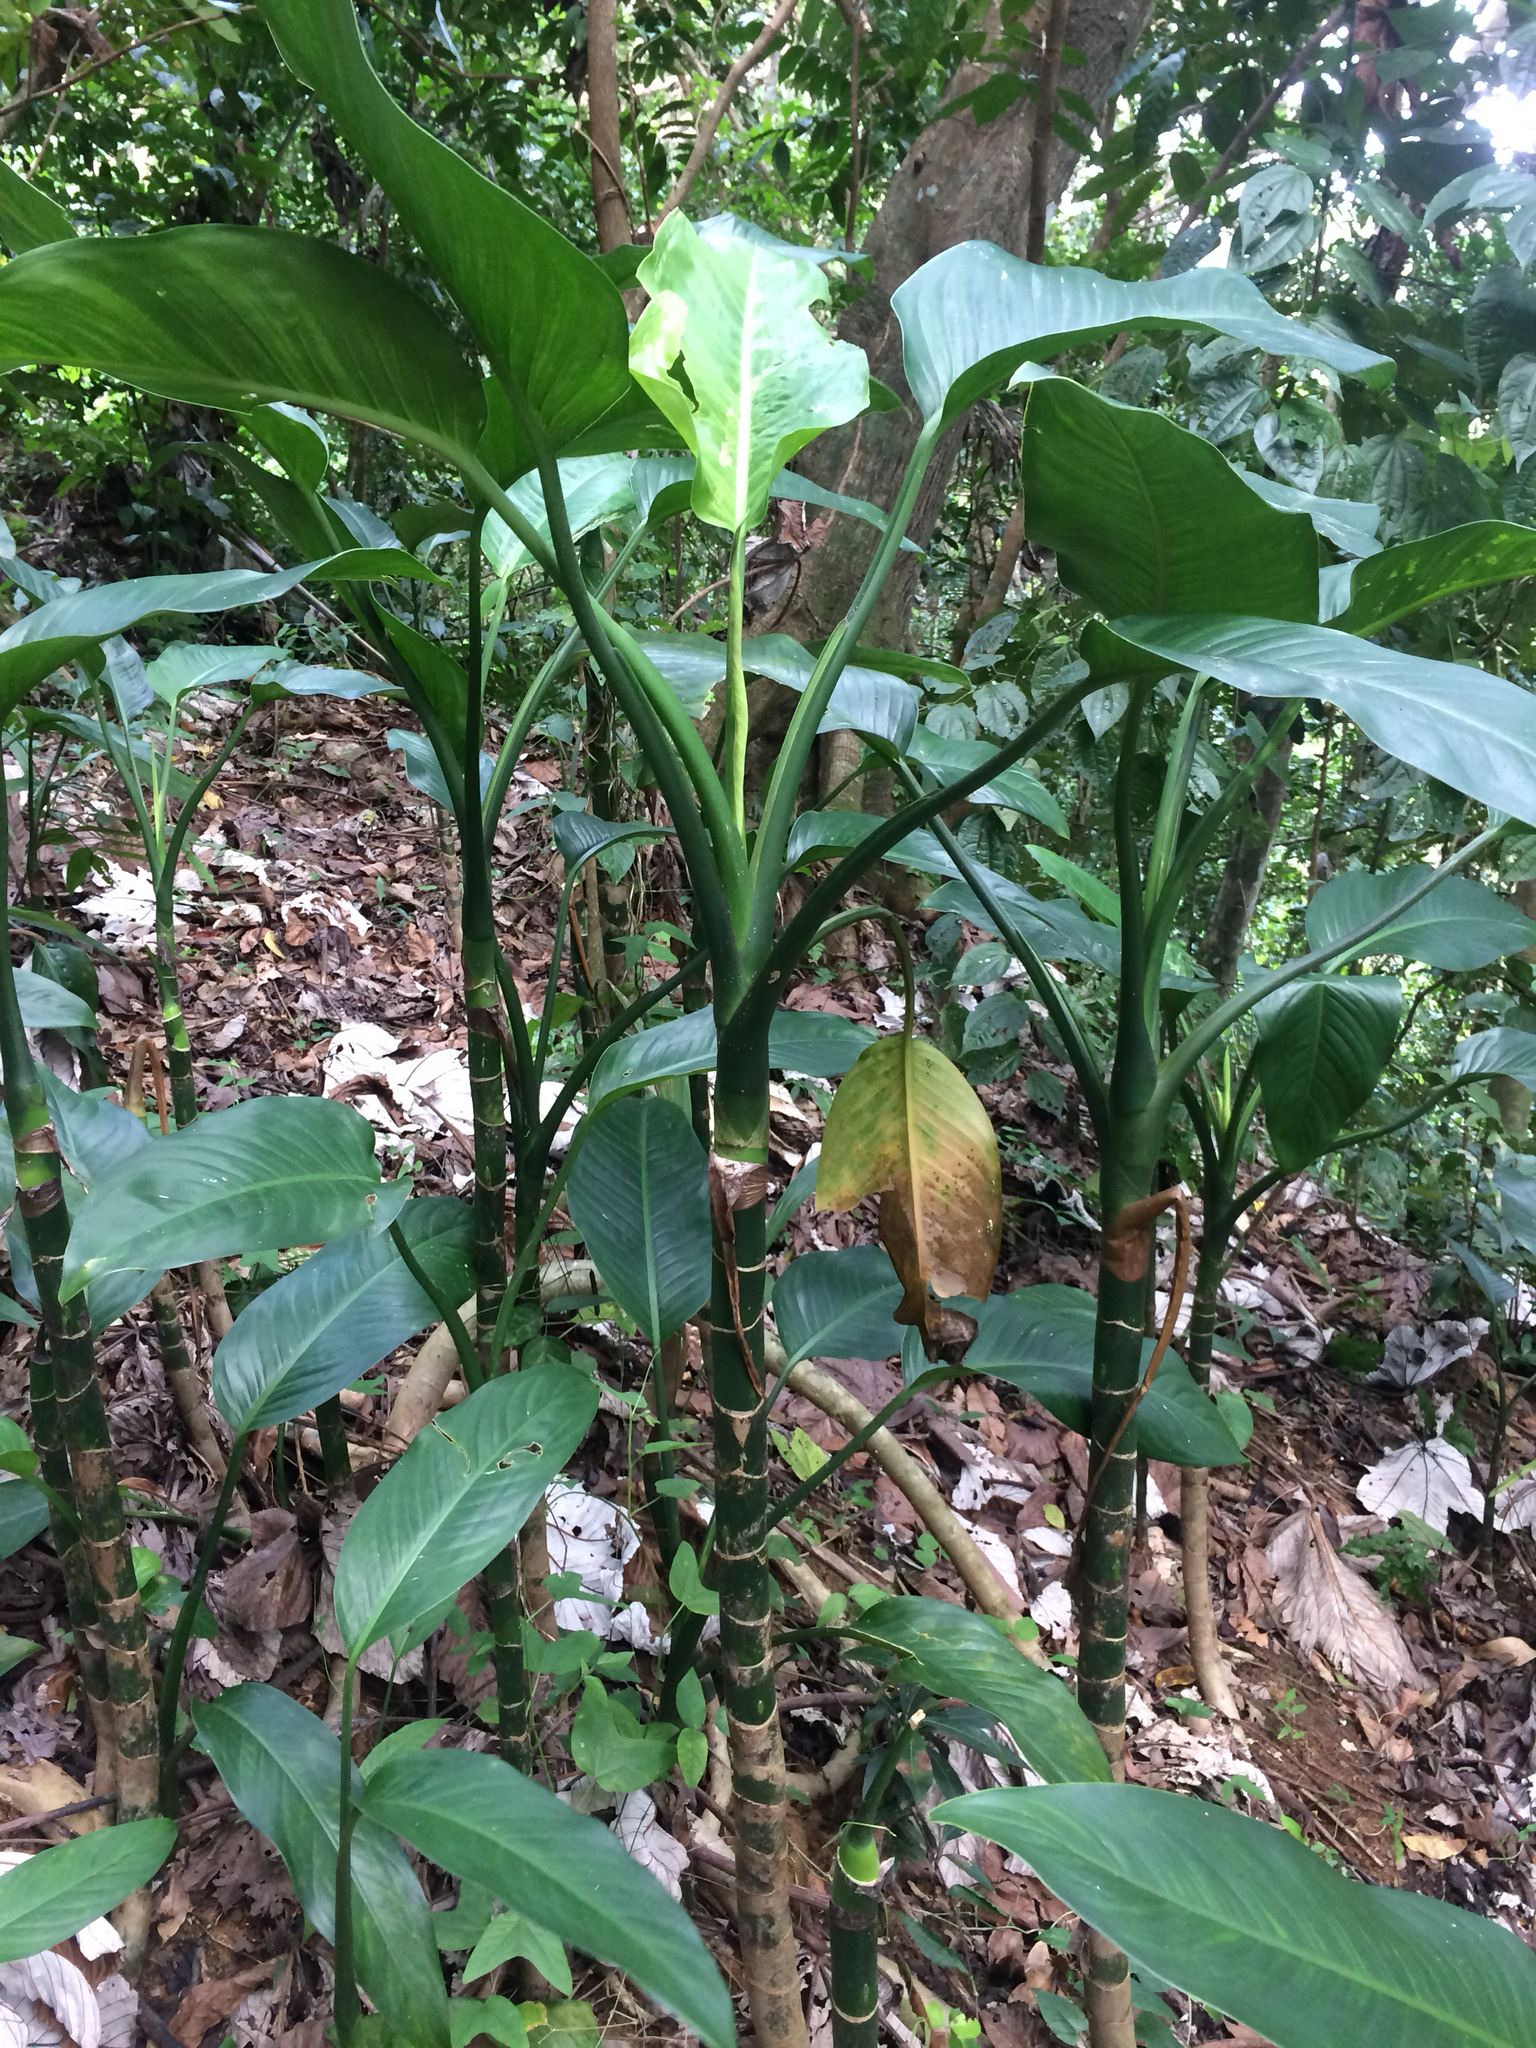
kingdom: Plantae
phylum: Tracheophyta
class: Liliopsida
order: Alismatales
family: Araceae
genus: Dieffenbachia
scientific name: Dieffenbachia seguine
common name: Dumbcane
